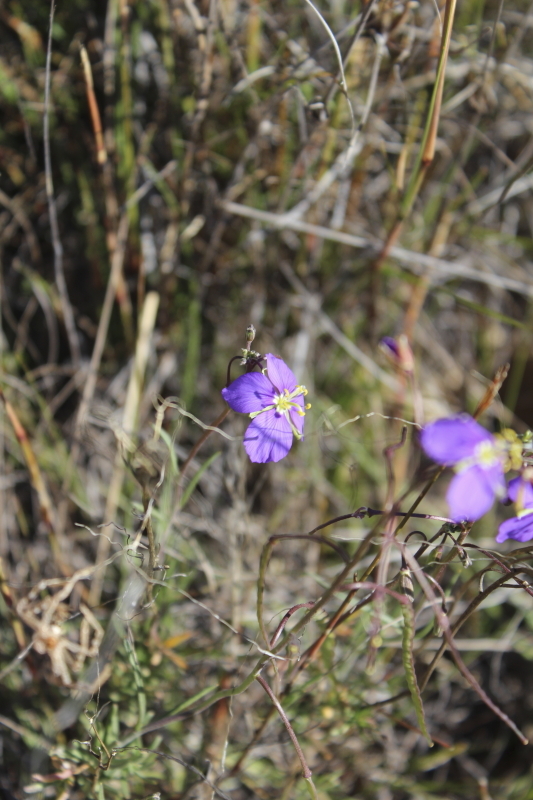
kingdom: Plantae
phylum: Tracheophyta
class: Magnoliopsida
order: Brassicales
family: Brassicaceae
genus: Heliophila
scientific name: Heliophila suavissima
